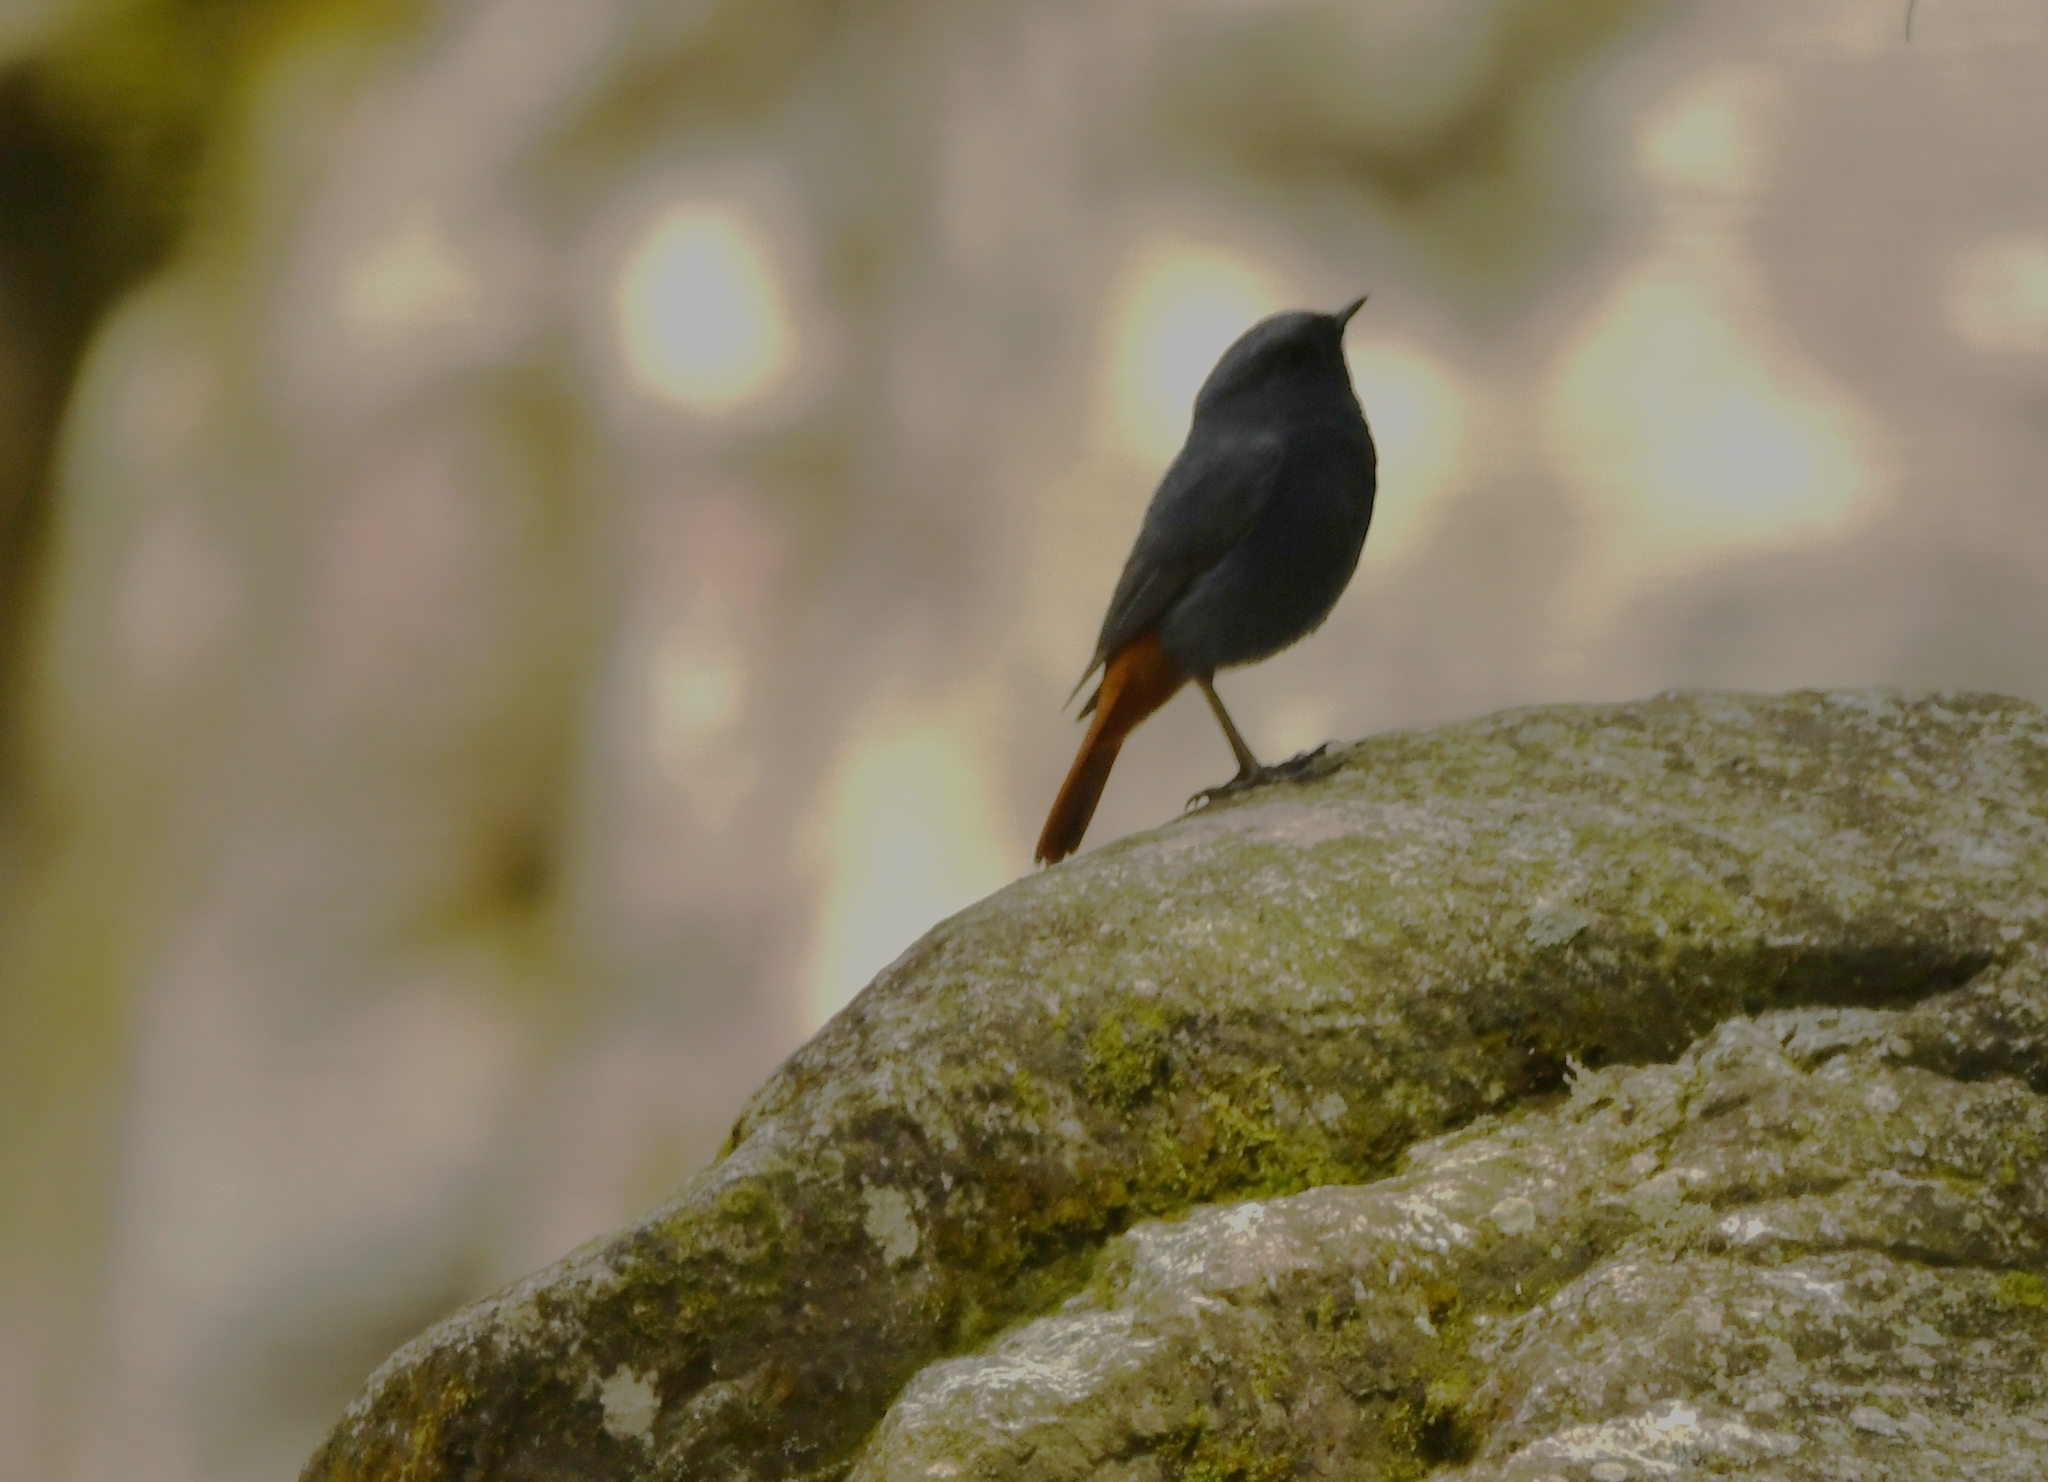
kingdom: Animalia
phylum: Chordata
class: Aves
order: Passeriformes
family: Muscicapidae
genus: Phoenicurus
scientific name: Phoenicurus fuliginosus
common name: Plumbeous water redstart
